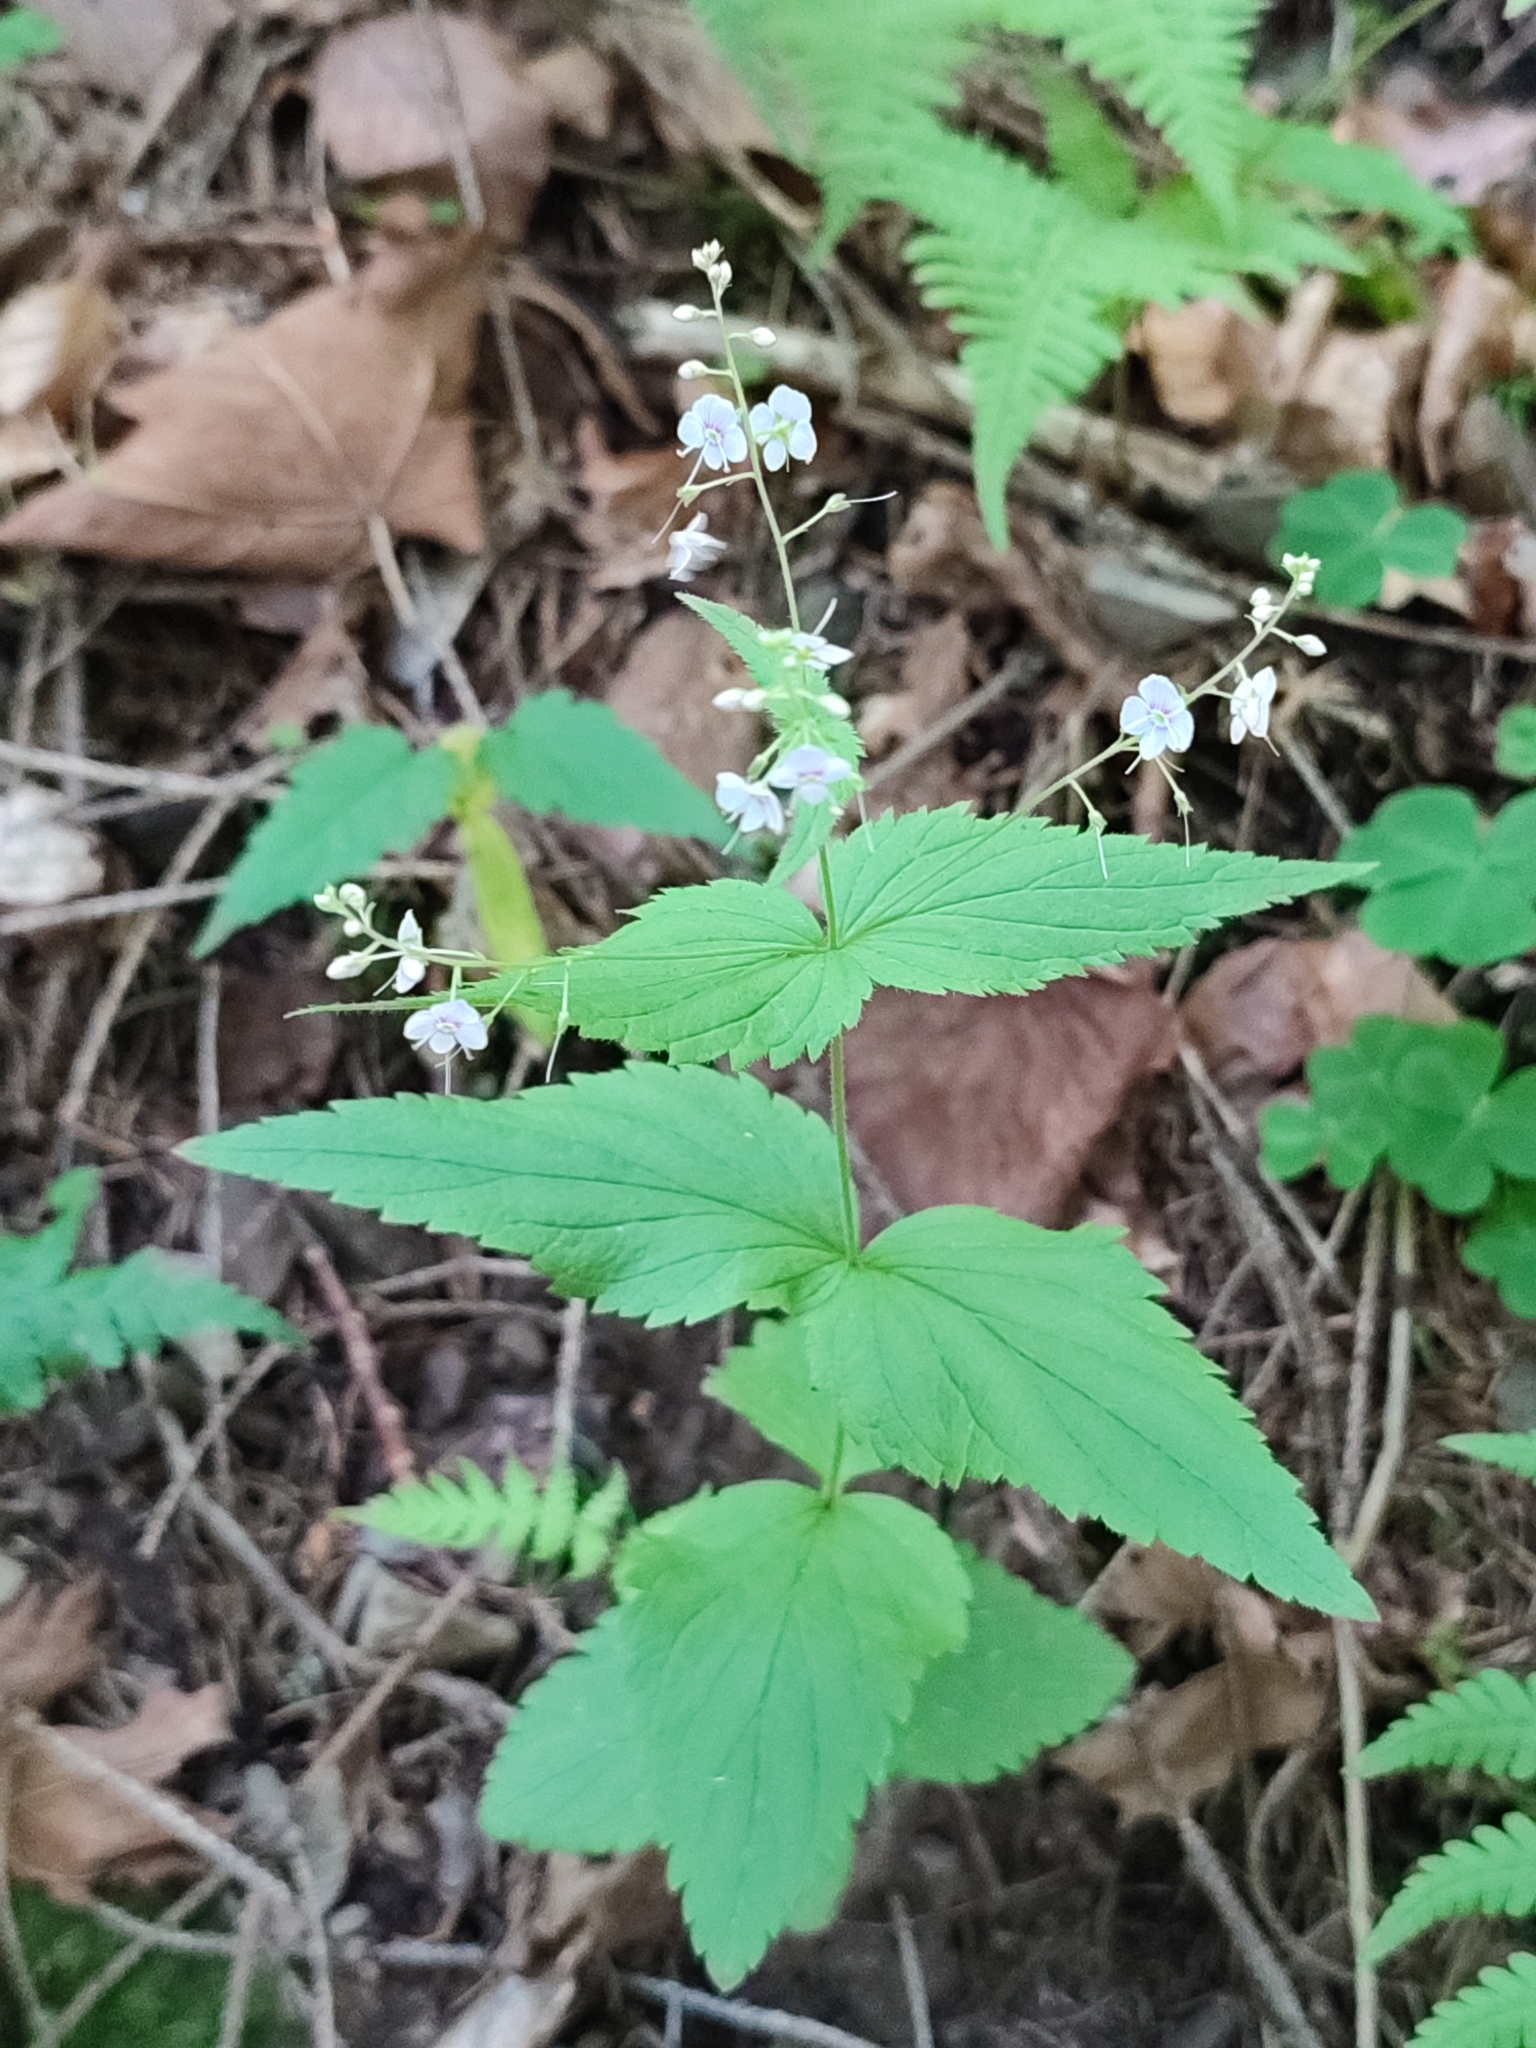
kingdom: Plantae
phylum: Tracheophyta
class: Magnoliopsida
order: Lamiales
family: Plantaginaceae
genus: Veronica
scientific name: Veronica urticifolia
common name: Nettle-leaf speedwell
